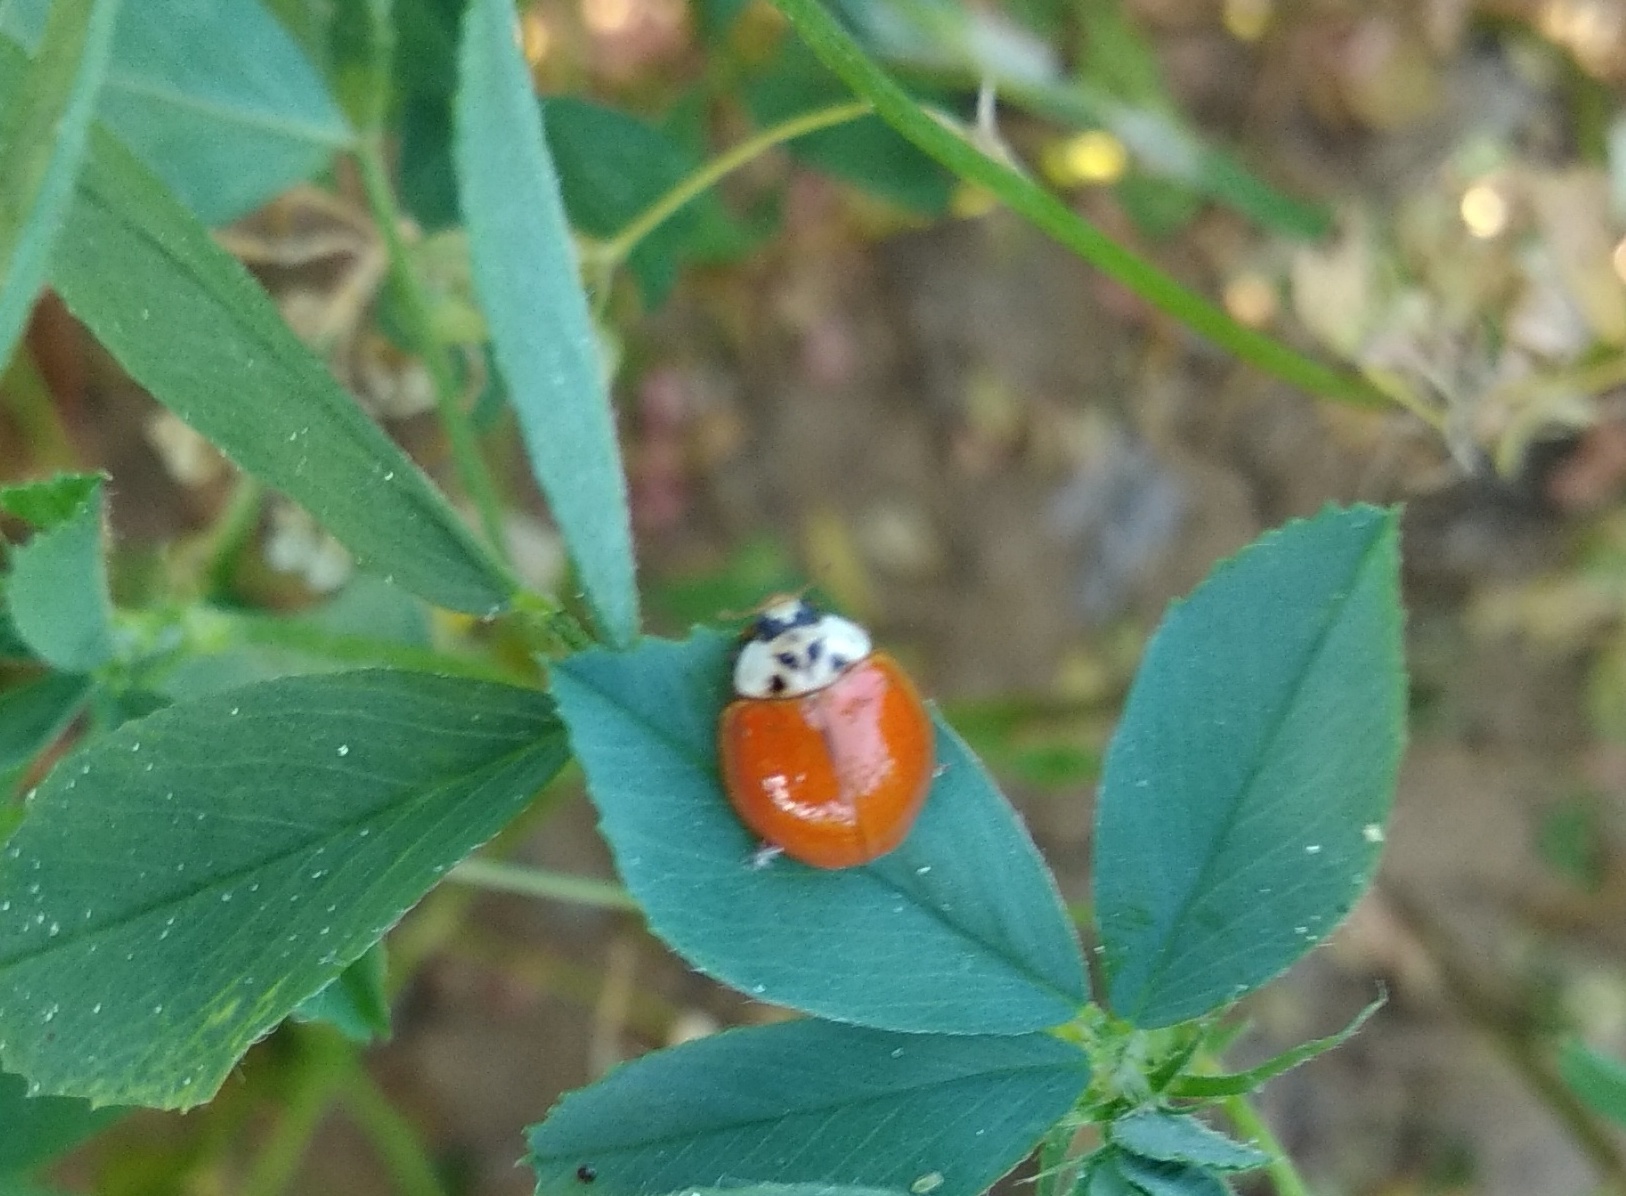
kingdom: Animalia
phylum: Arthropoda
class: Insecta
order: Coleoptera
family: Coccinellidae
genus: Harmonia
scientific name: Harmonia axyridis
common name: Harlequin ladybird
